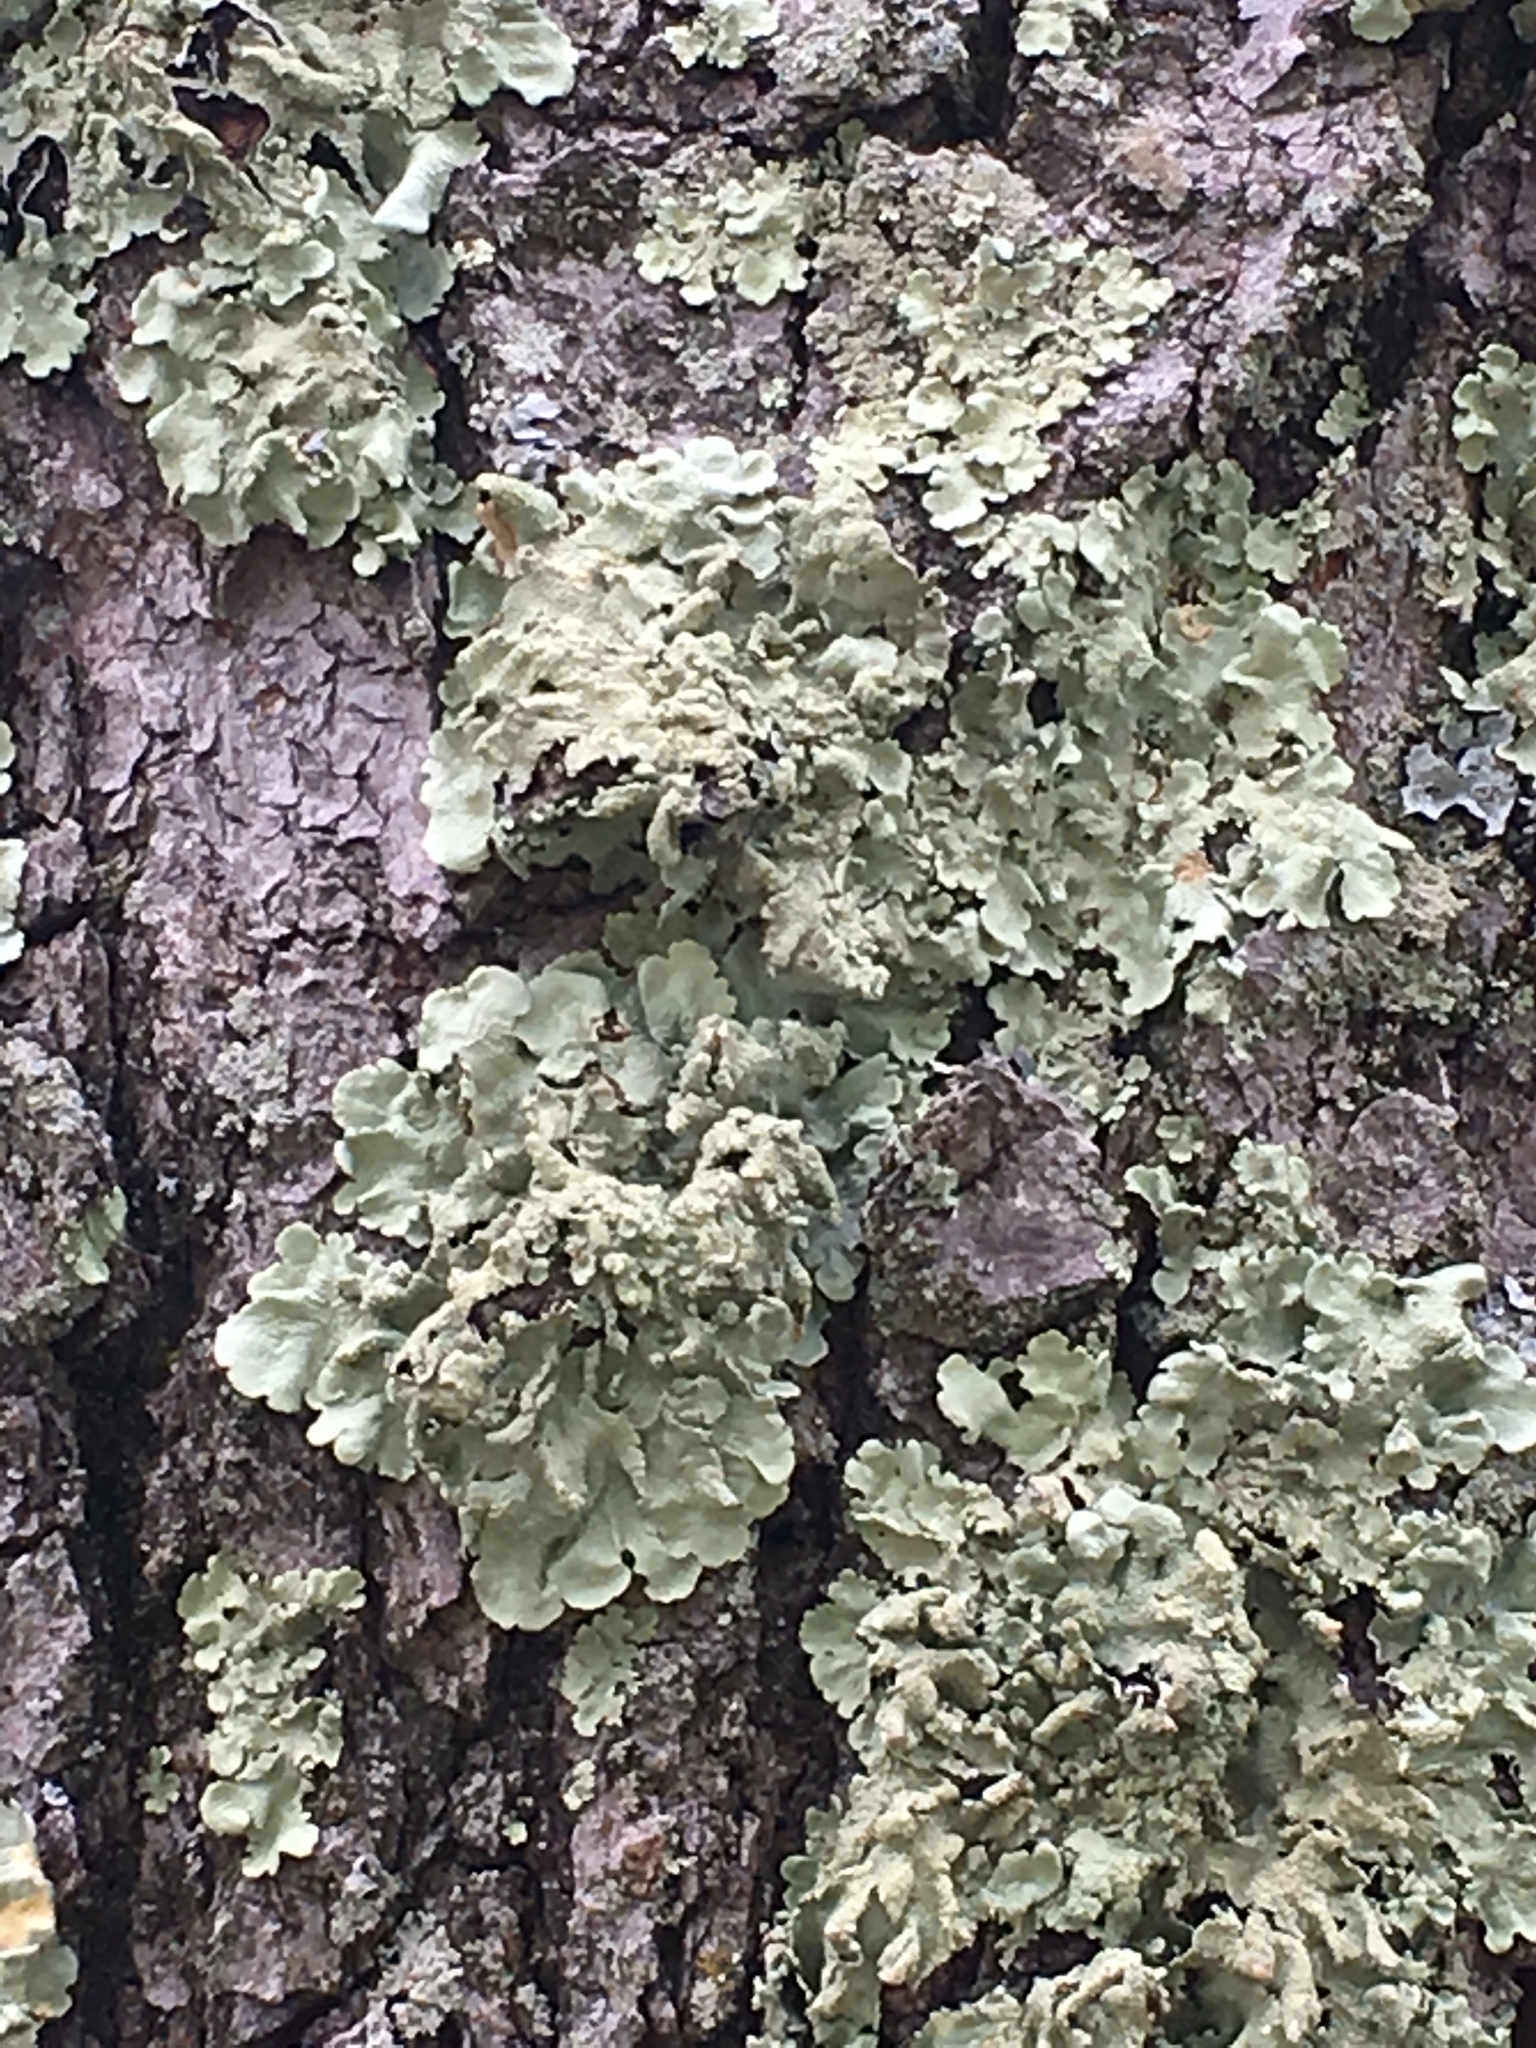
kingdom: Fungi
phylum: Ascomycota
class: Lecanoromycetes
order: Lecanorales
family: Parmeliaceae
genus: Flavoparmelia
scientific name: Flavoparmelia caperata
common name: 40-mile per hour lichen
